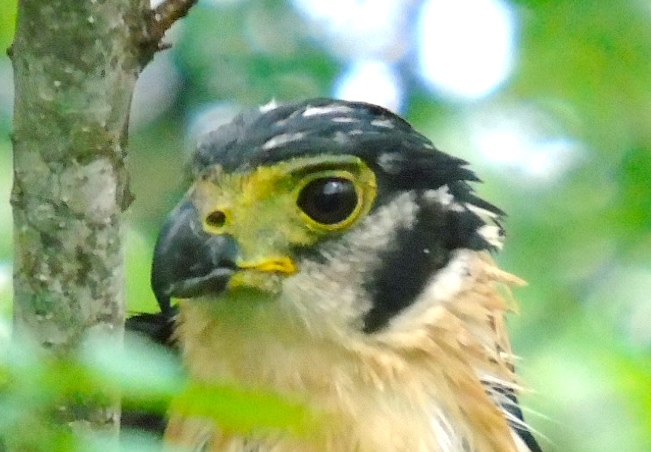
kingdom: Animalia
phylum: Chordata
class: Aves
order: Falconiformes
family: Falconidae
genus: Micrastur
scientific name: Micrastur semitorquatus
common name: Collared forest-falcon
